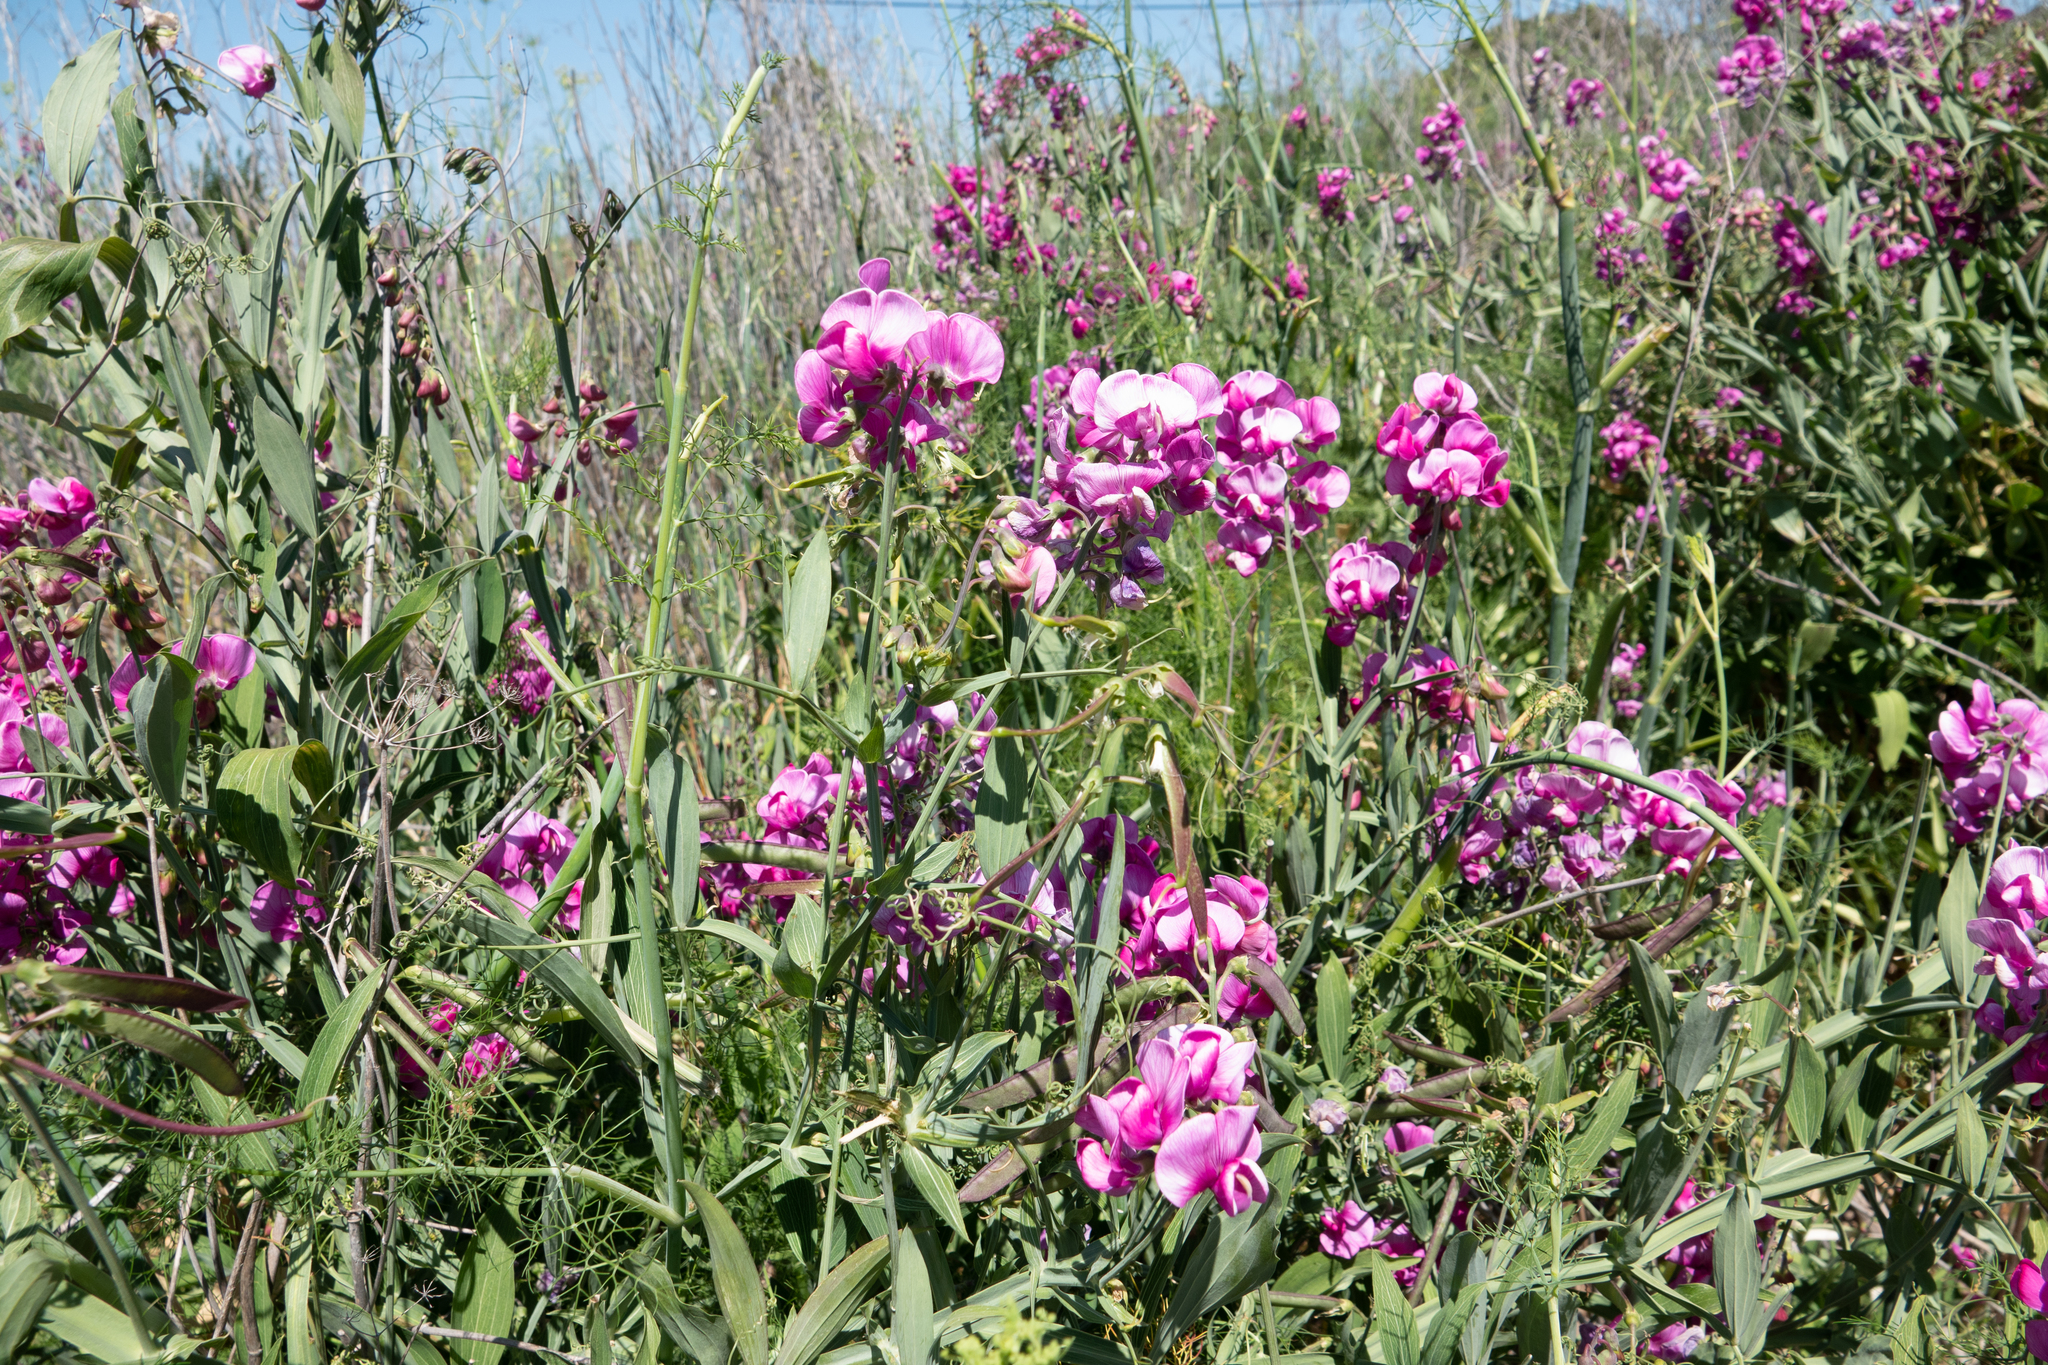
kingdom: Plantae
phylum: Tracheophyta
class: Magnoliopsida
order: Fabales
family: Fabaceae
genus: Lathyrus
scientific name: Lathyrus latifolius
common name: Perennial pea
